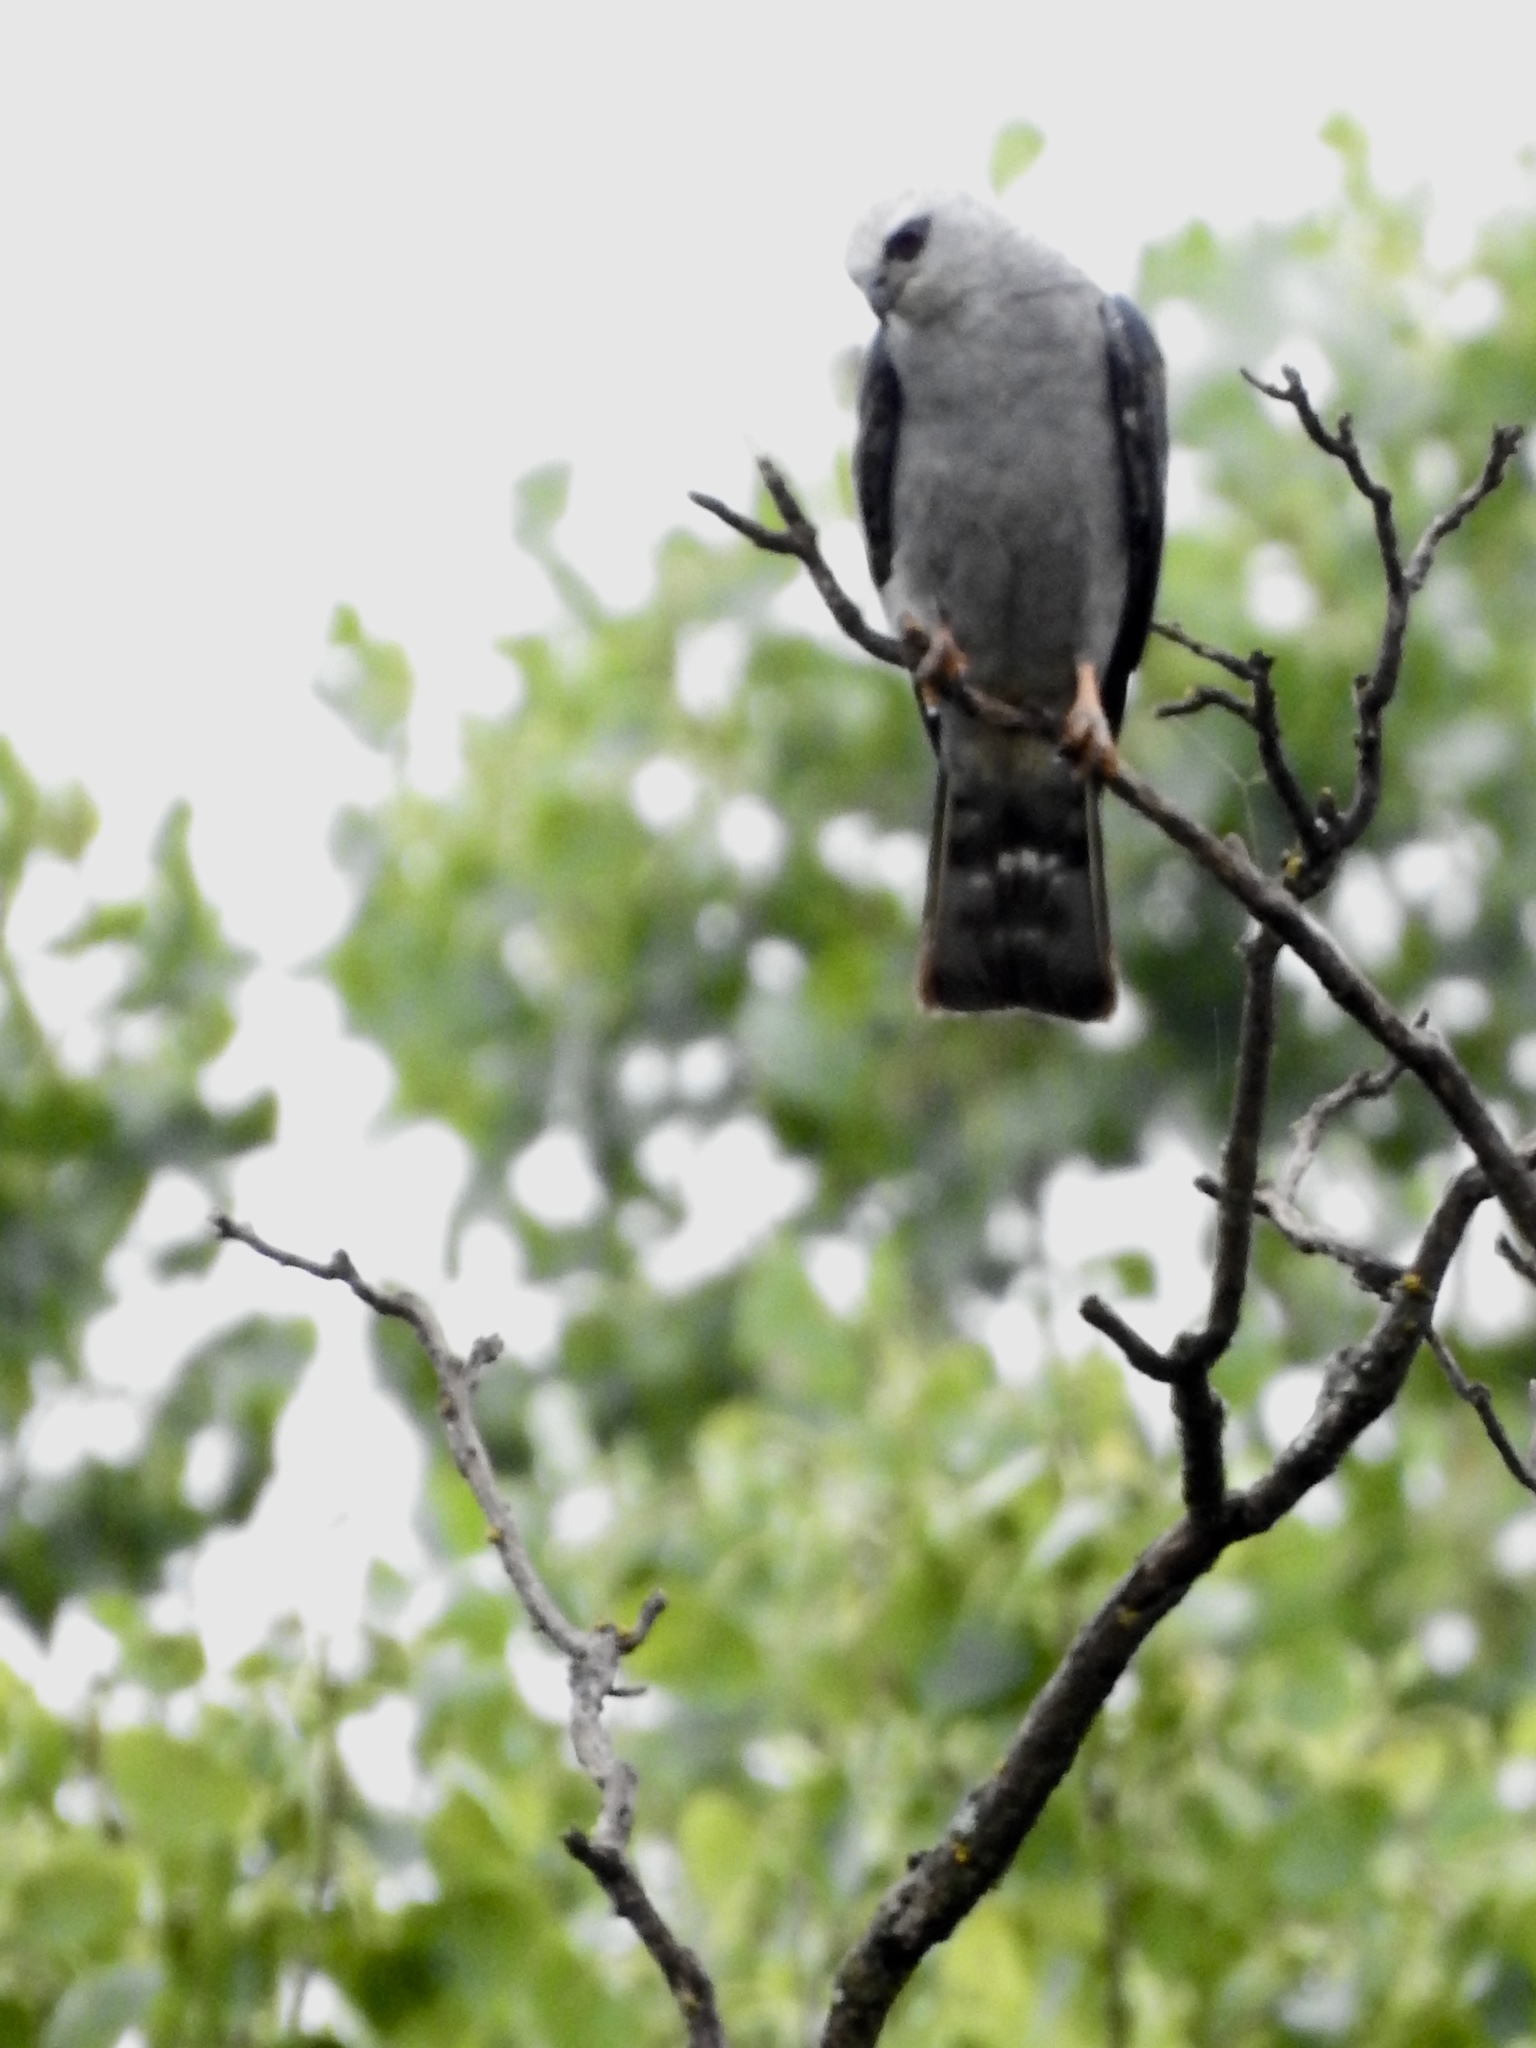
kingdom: Animalia
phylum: Chordata
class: Aves
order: Accipitriformes
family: Accipitridae
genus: Ictinia
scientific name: Ictinia mississippiensis
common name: Mississippi kite
